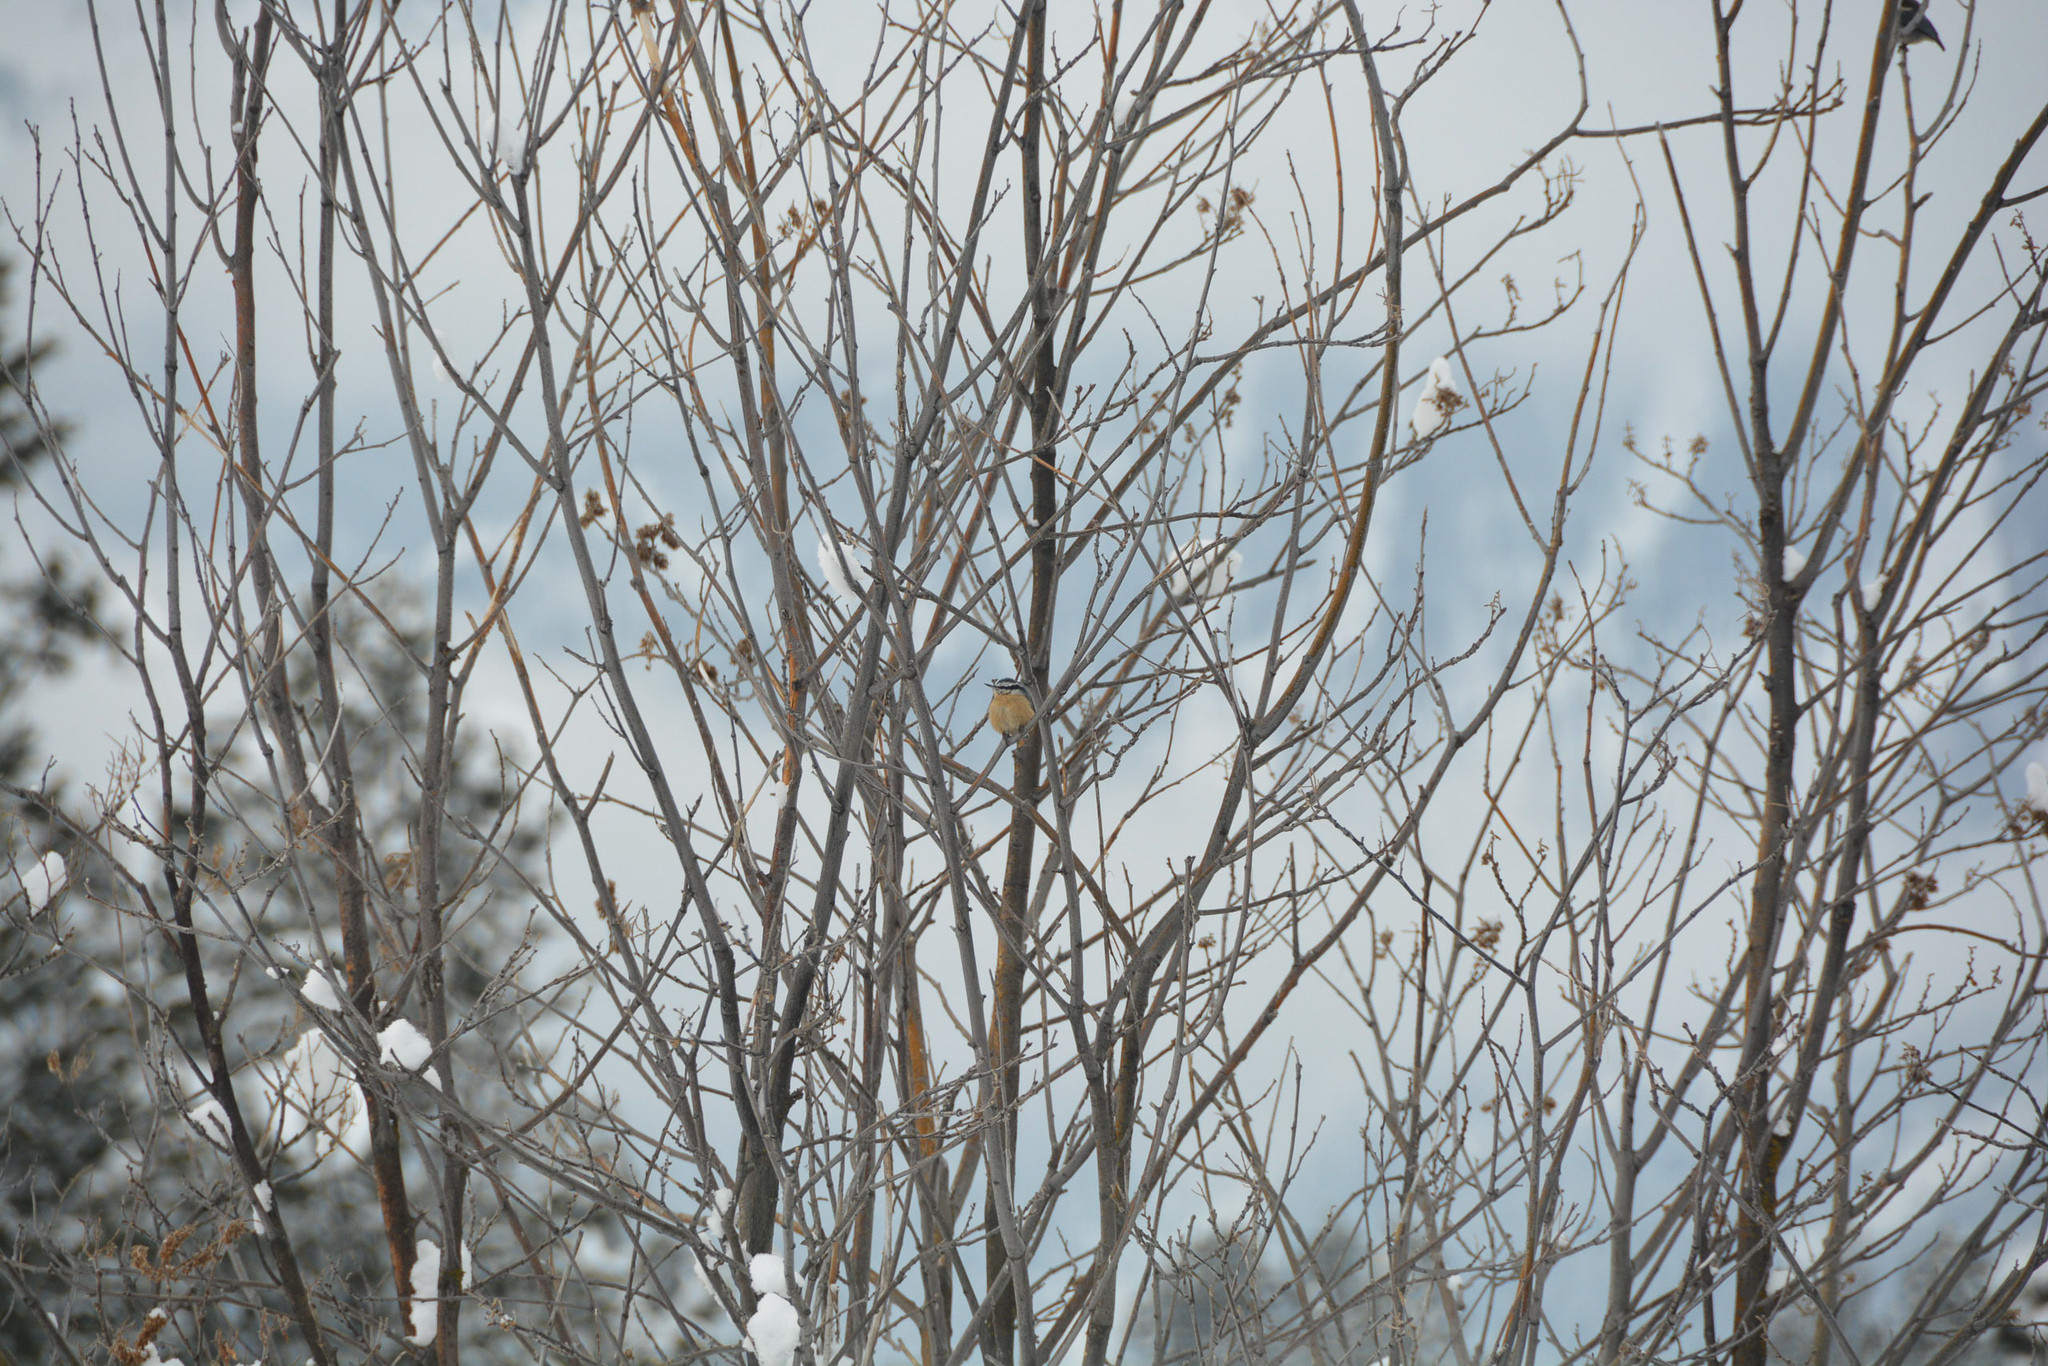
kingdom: Animalia
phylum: Chordata
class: Aves
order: Passeriformes
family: Sittidae
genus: Sitta
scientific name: Sitta canadensis
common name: Red-breasted nuthatch
